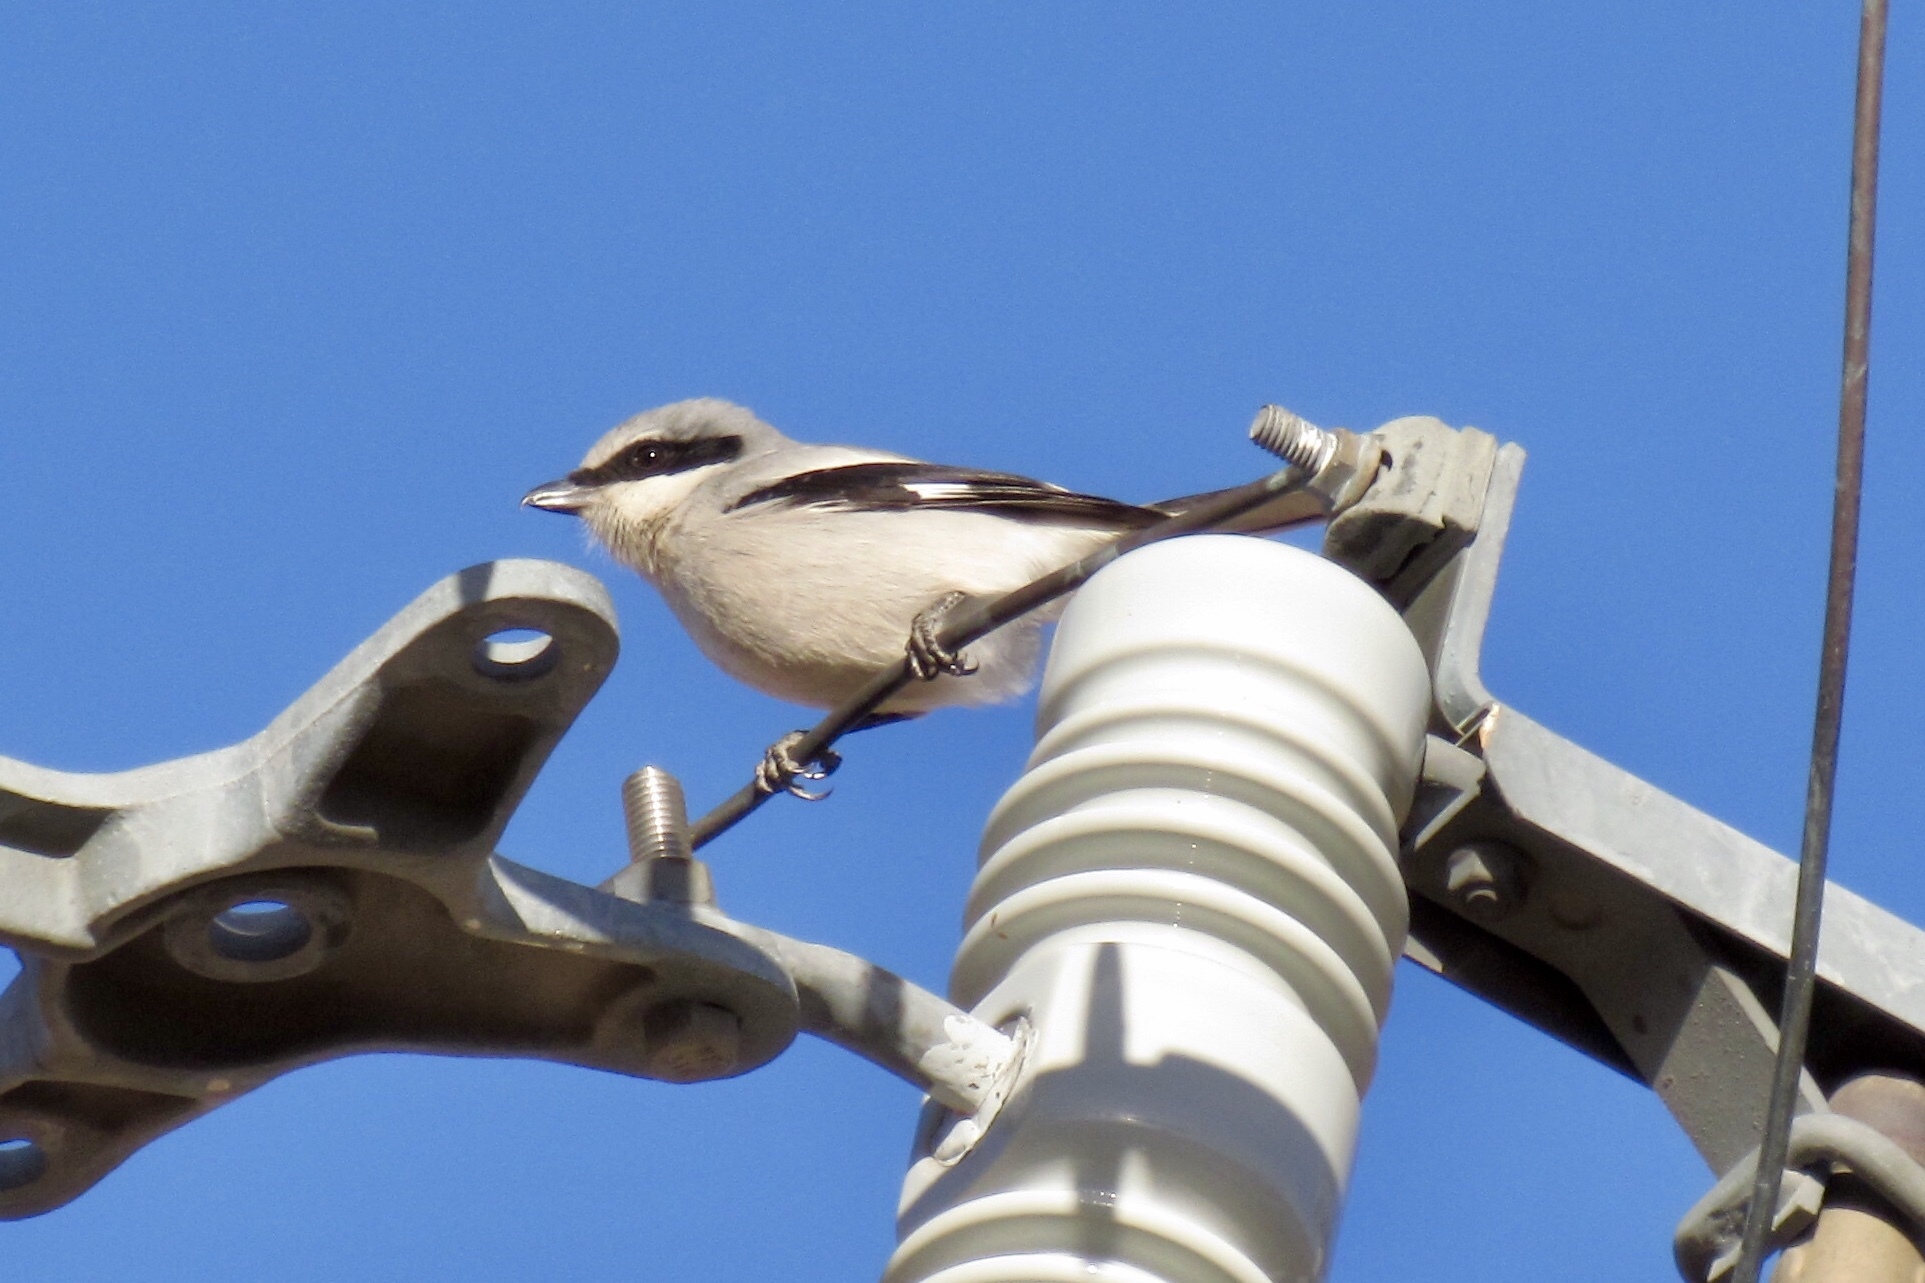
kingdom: Animalia
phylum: Chordata
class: Aves
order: Passeriformes
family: Laniidae
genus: Lanius
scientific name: Lanius ludovicianus
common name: Loggerhead shrike
